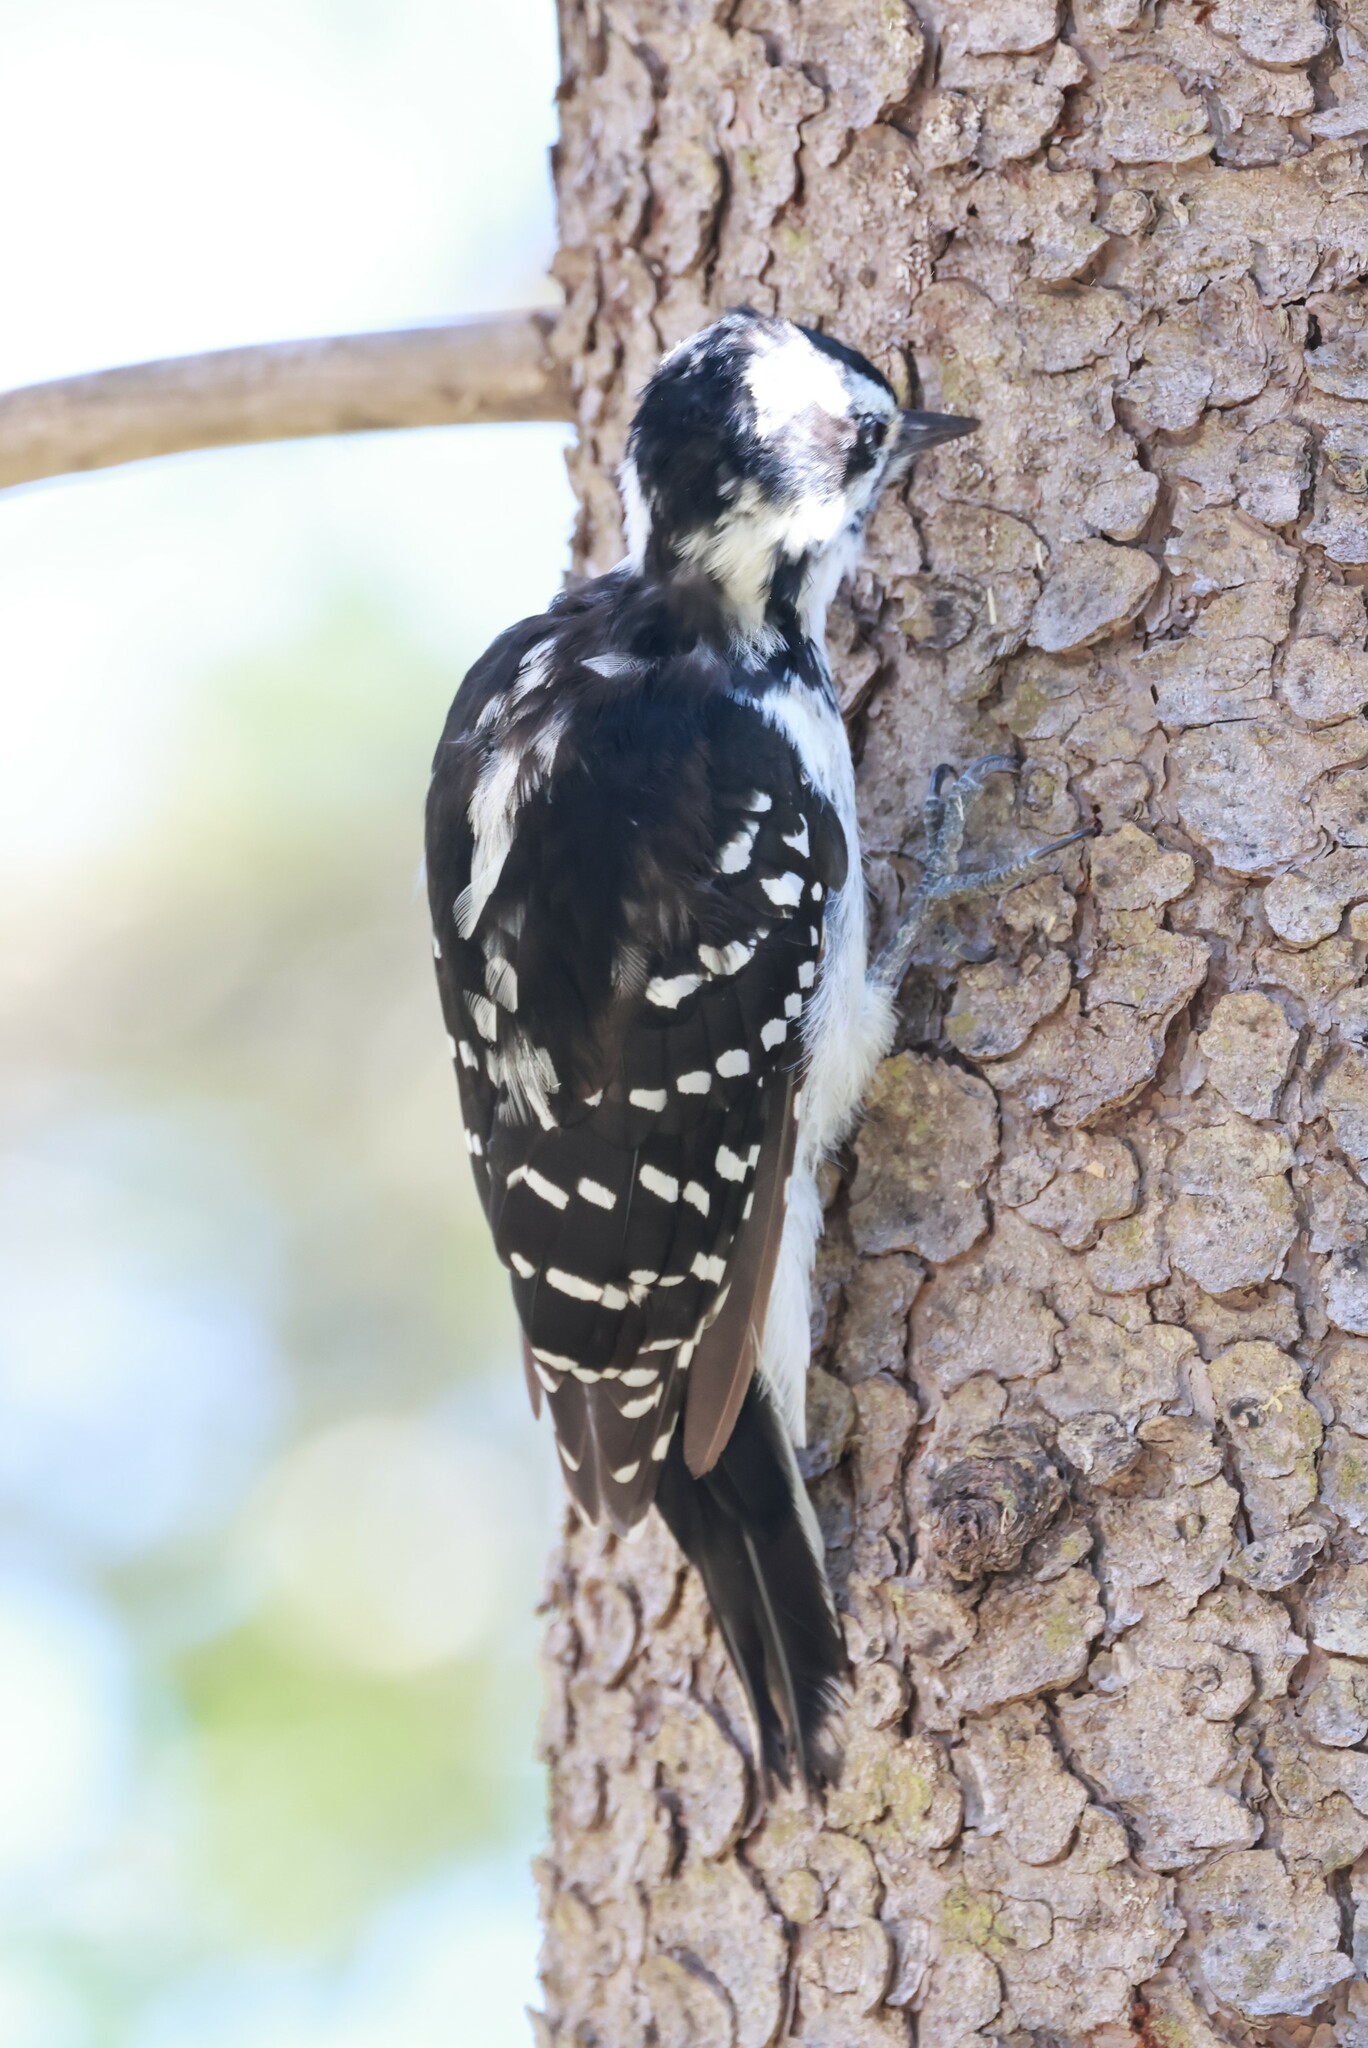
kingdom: Animalia
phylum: Chordata
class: Aves
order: Piciformes
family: Picidae
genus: Leuconotopicus
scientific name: Leuconotopicus villosus
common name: Hairy woodpecker
